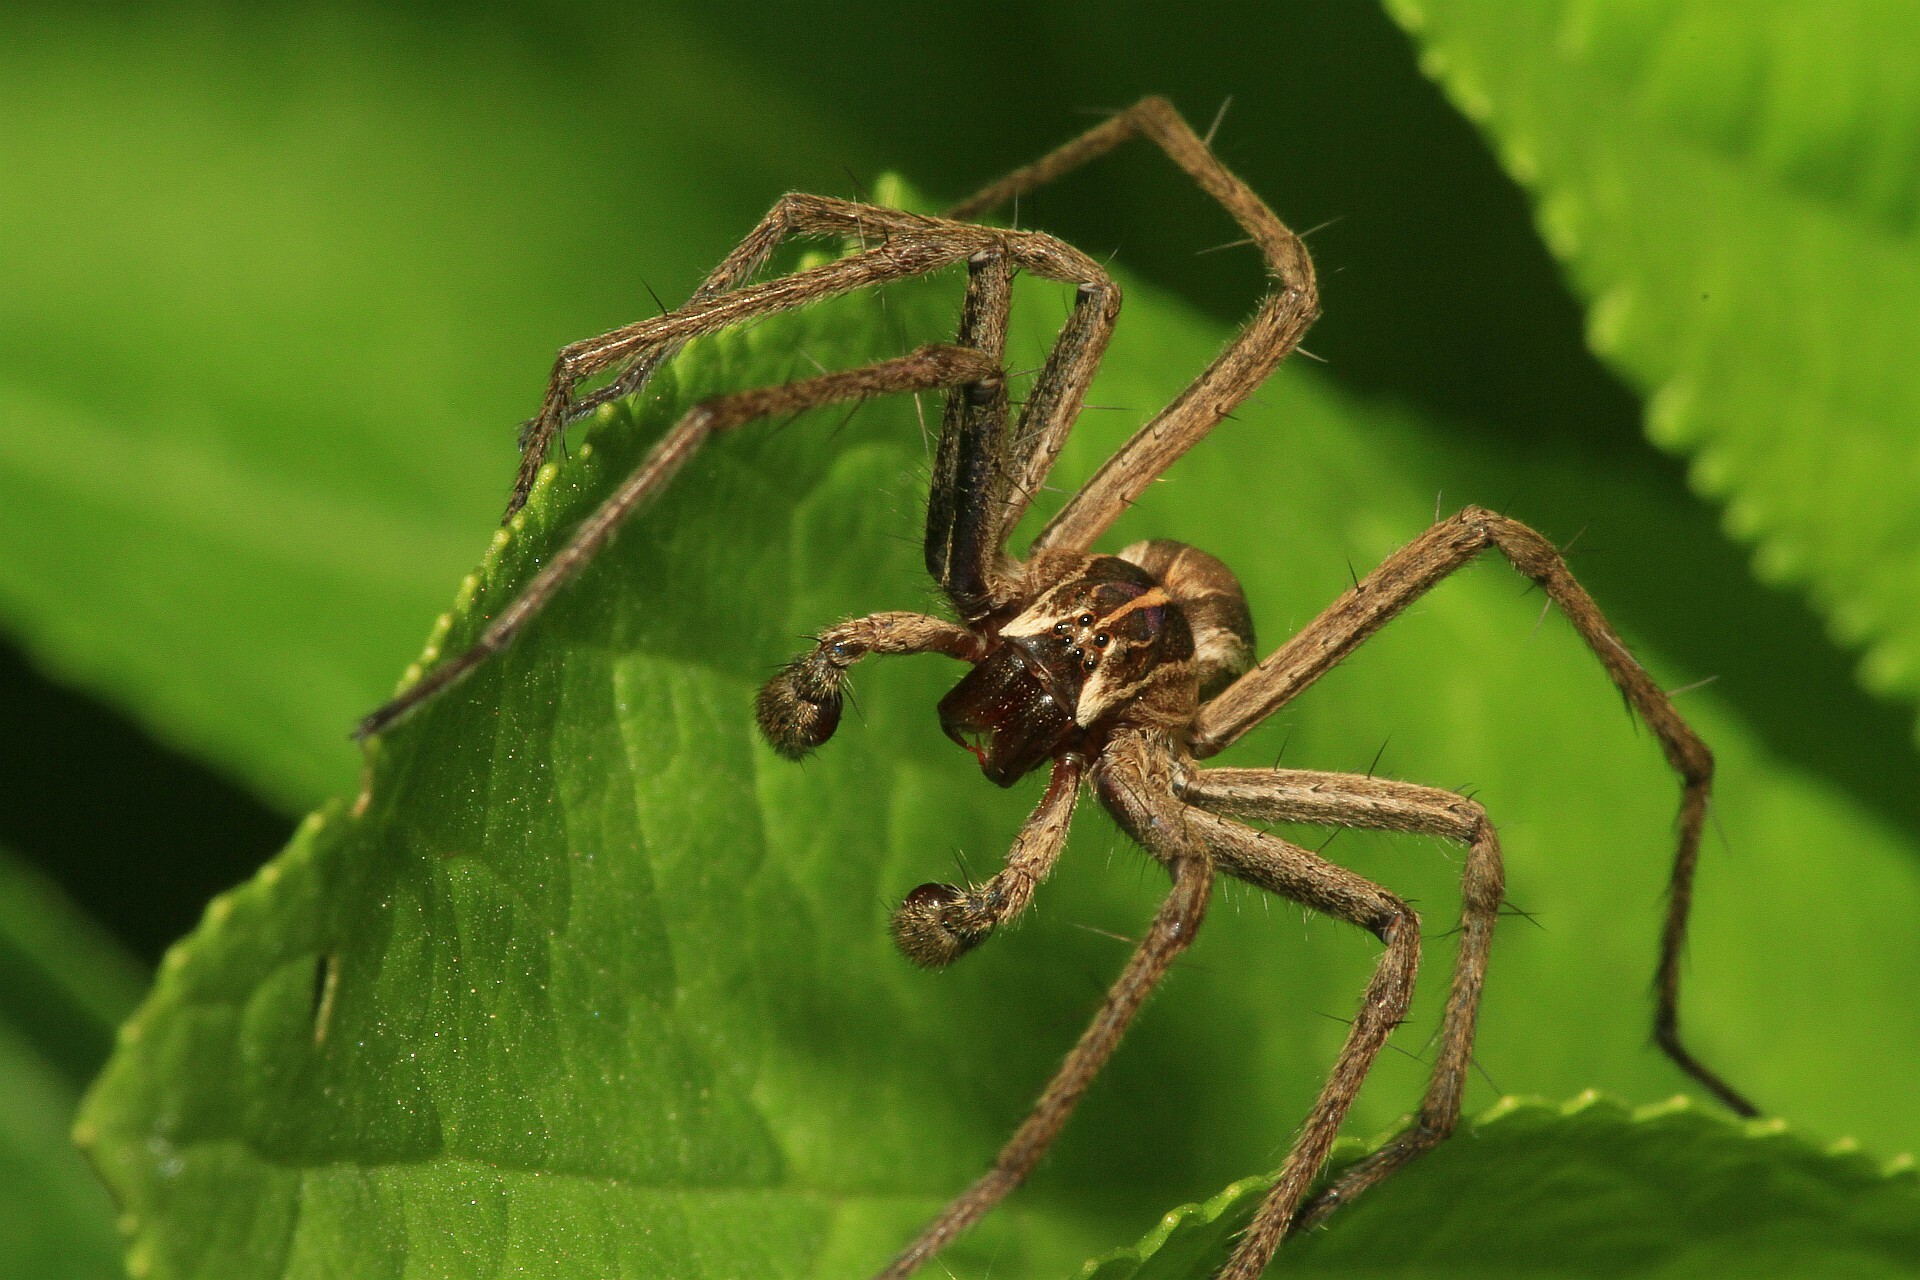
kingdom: Animalia
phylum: Arthropoda
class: Arachnida
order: Araneae
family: Pisauridae
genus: Pisaura
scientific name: Pisaura mirabilis
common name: Tent spider
